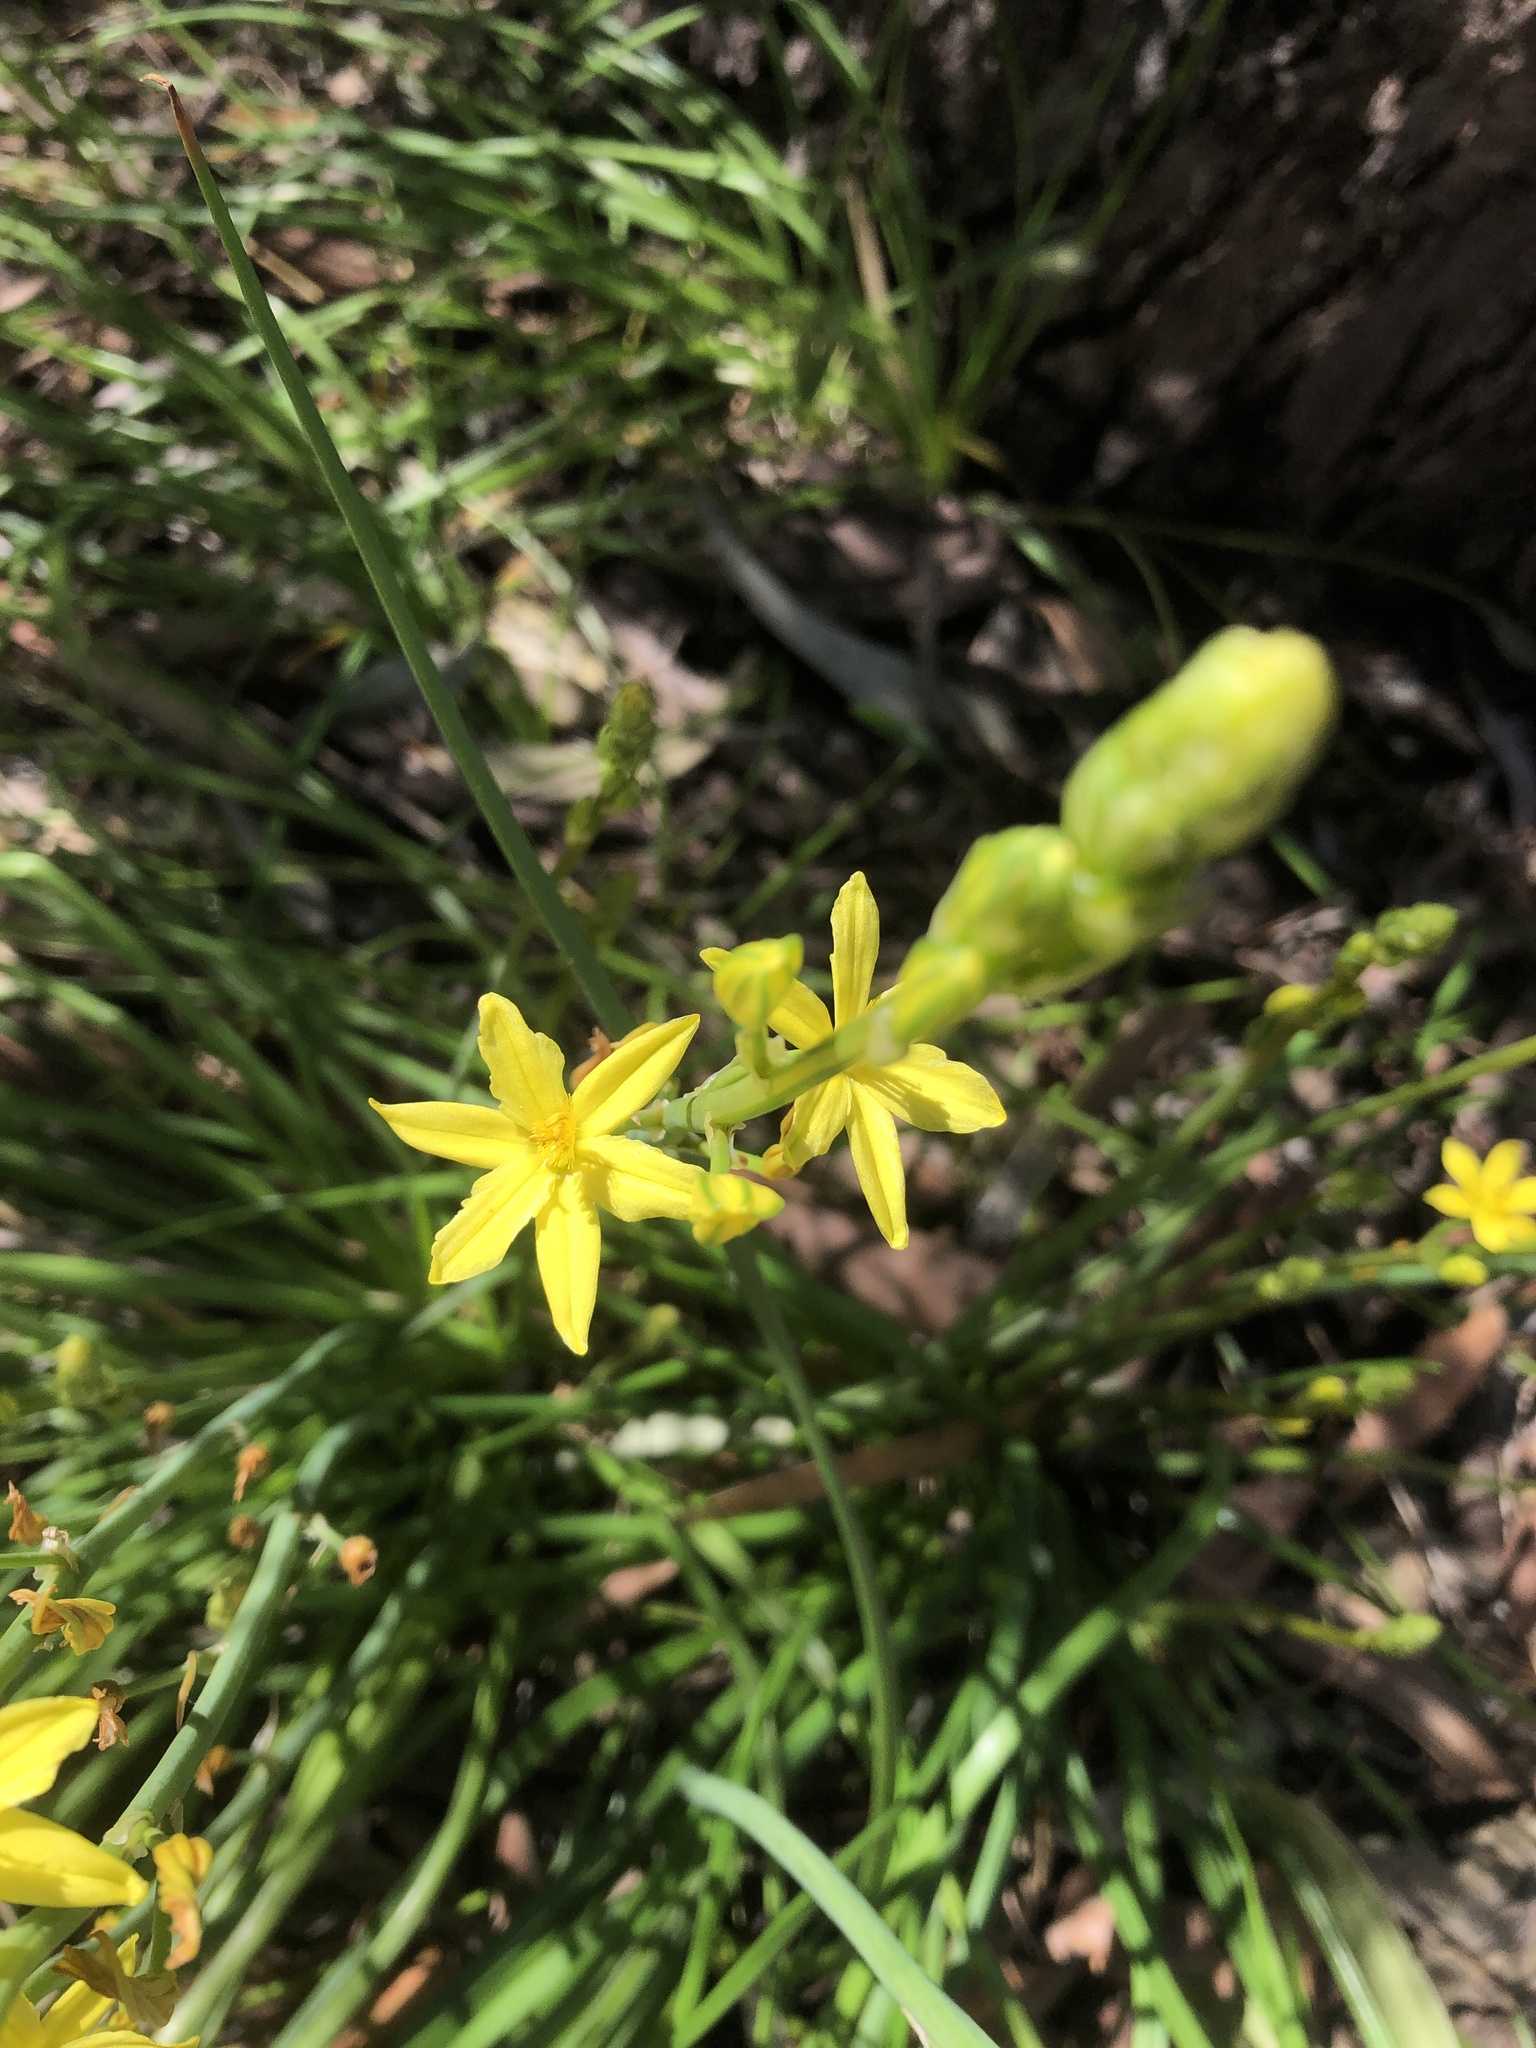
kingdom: Plantae
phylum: Tracheophyta
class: Liliopsida
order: Asparagales
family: Asphodelaceae
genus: Bulbine
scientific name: Bulbine bulbosa
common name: Golden-lily
